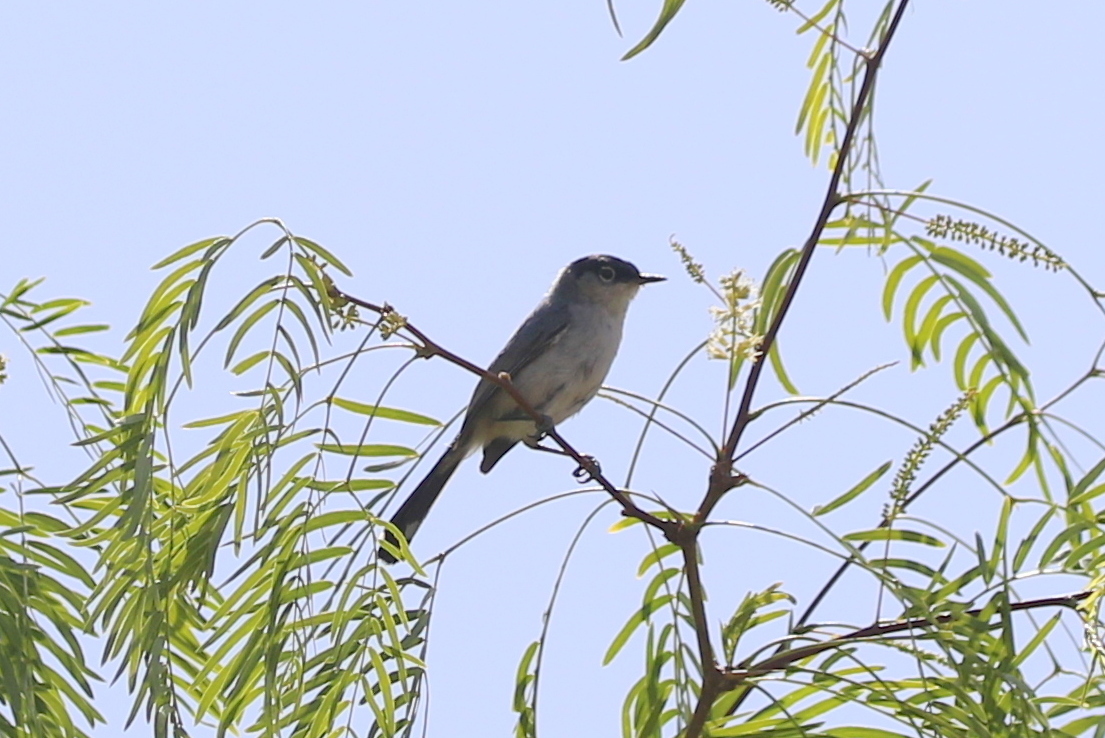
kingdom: Animalia
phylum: Chordata
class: Aves
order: Passeriformes
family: Polioptilidae
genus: Polioptila
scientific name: Polioptila melanura
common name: Black-tailed gnatcatcher
